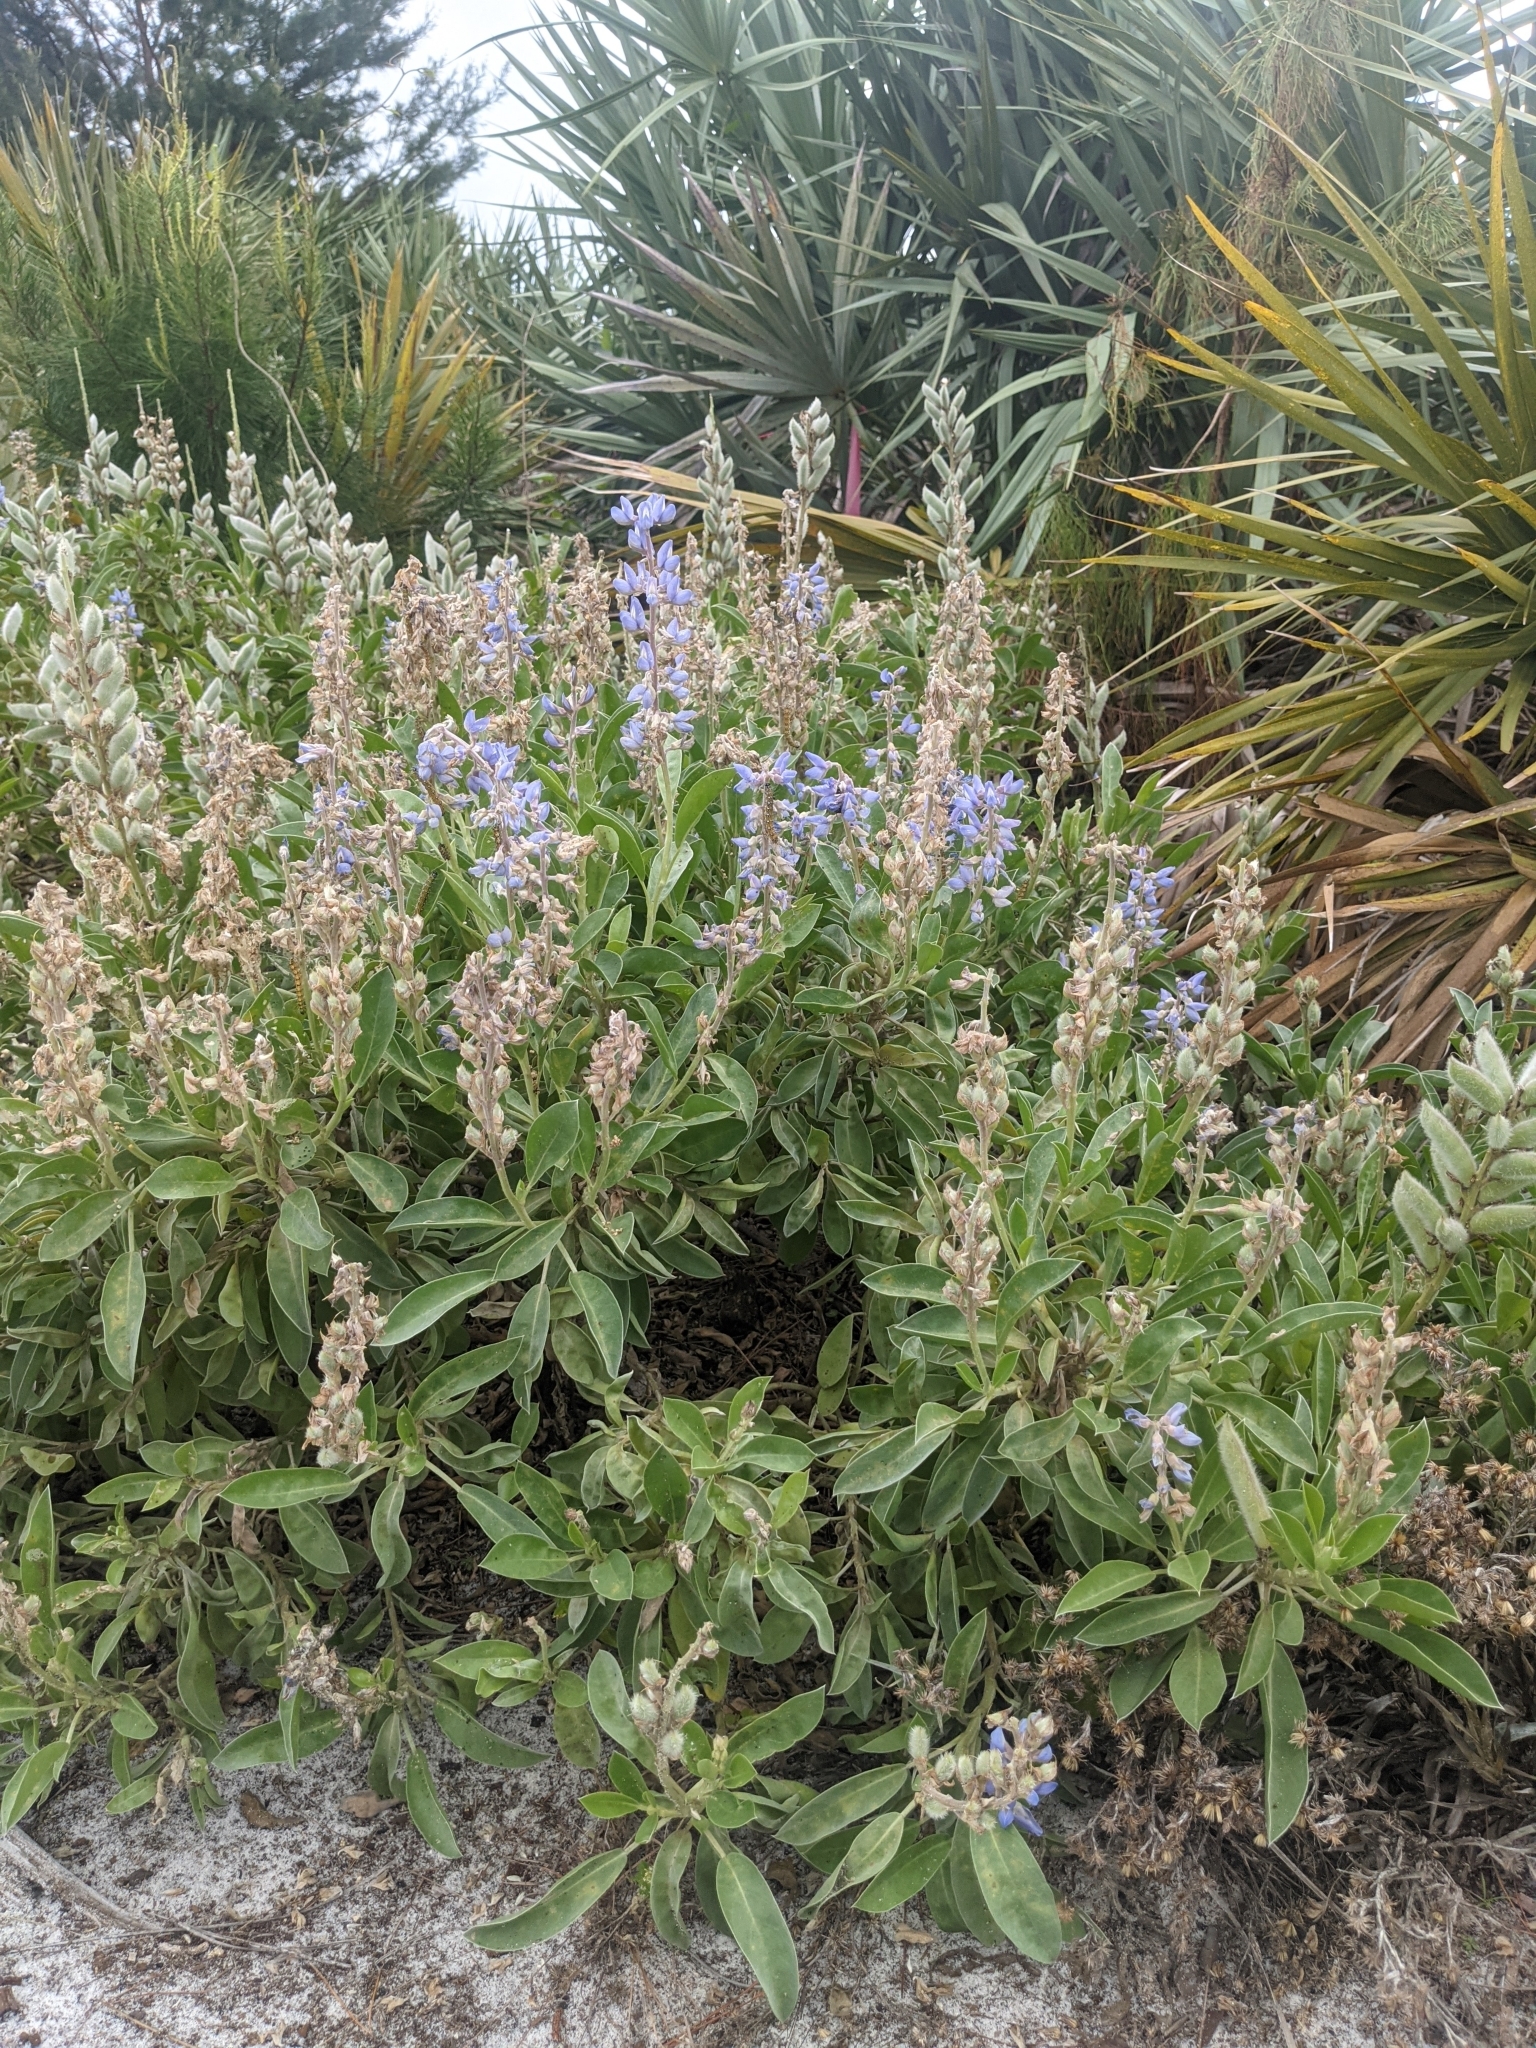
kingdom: Plantae
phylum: Tracheophyta
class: Magnoliopsida
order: Fabales
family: Fabaceae
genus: Lupinus
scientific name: Lupinus
